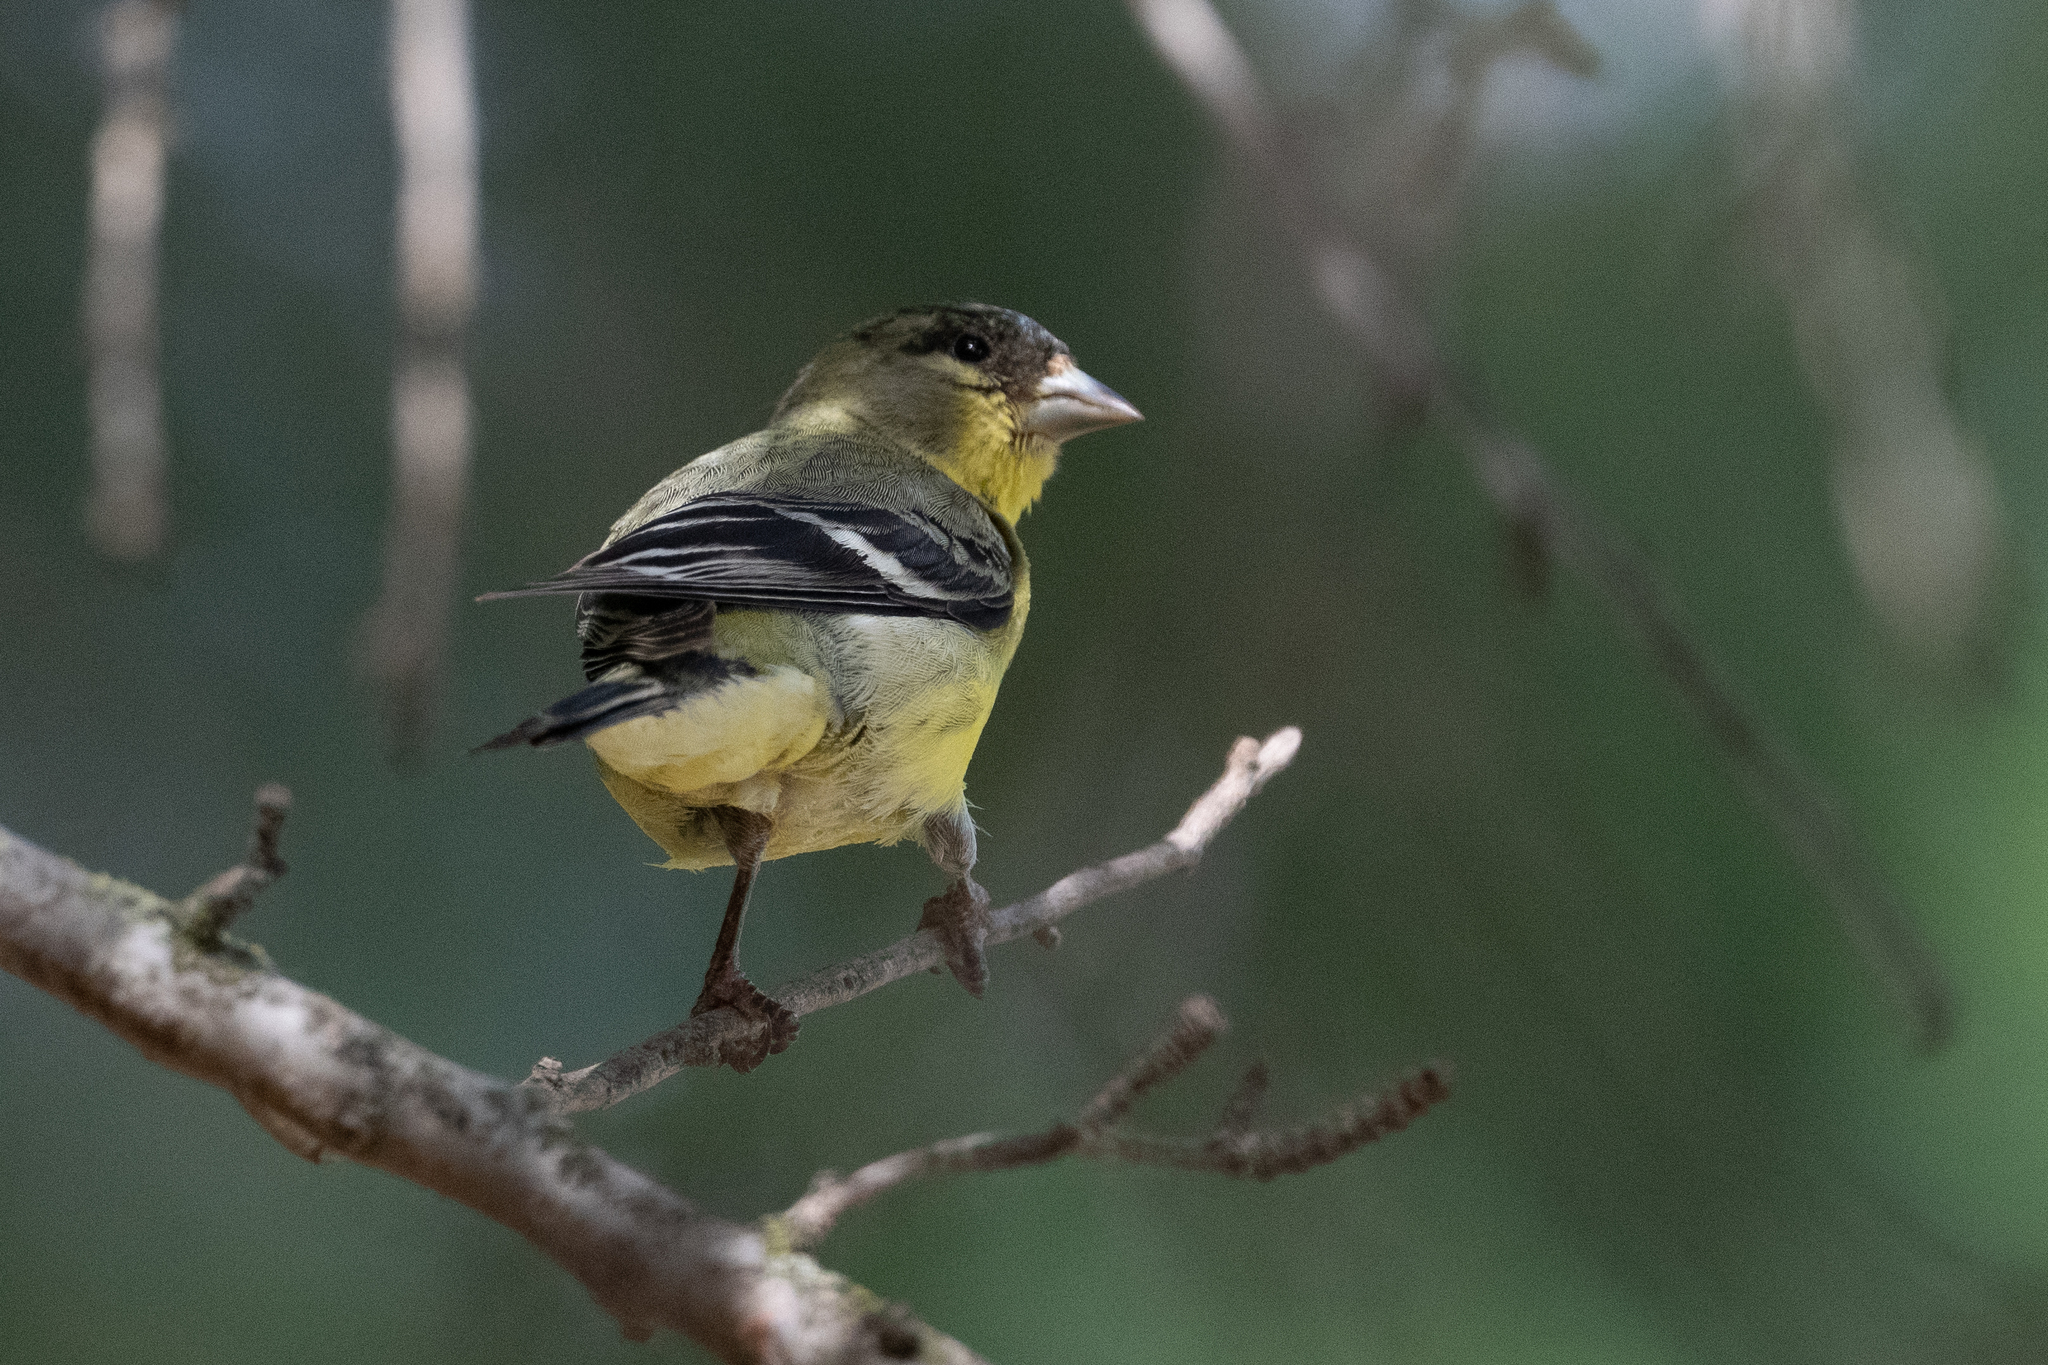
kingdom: Animalia
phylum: Chordata
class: Aves
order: Passeriformes
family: Fringillidae
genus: Spinus
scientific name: Spinus psaltria
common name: Lesser goldfinch
